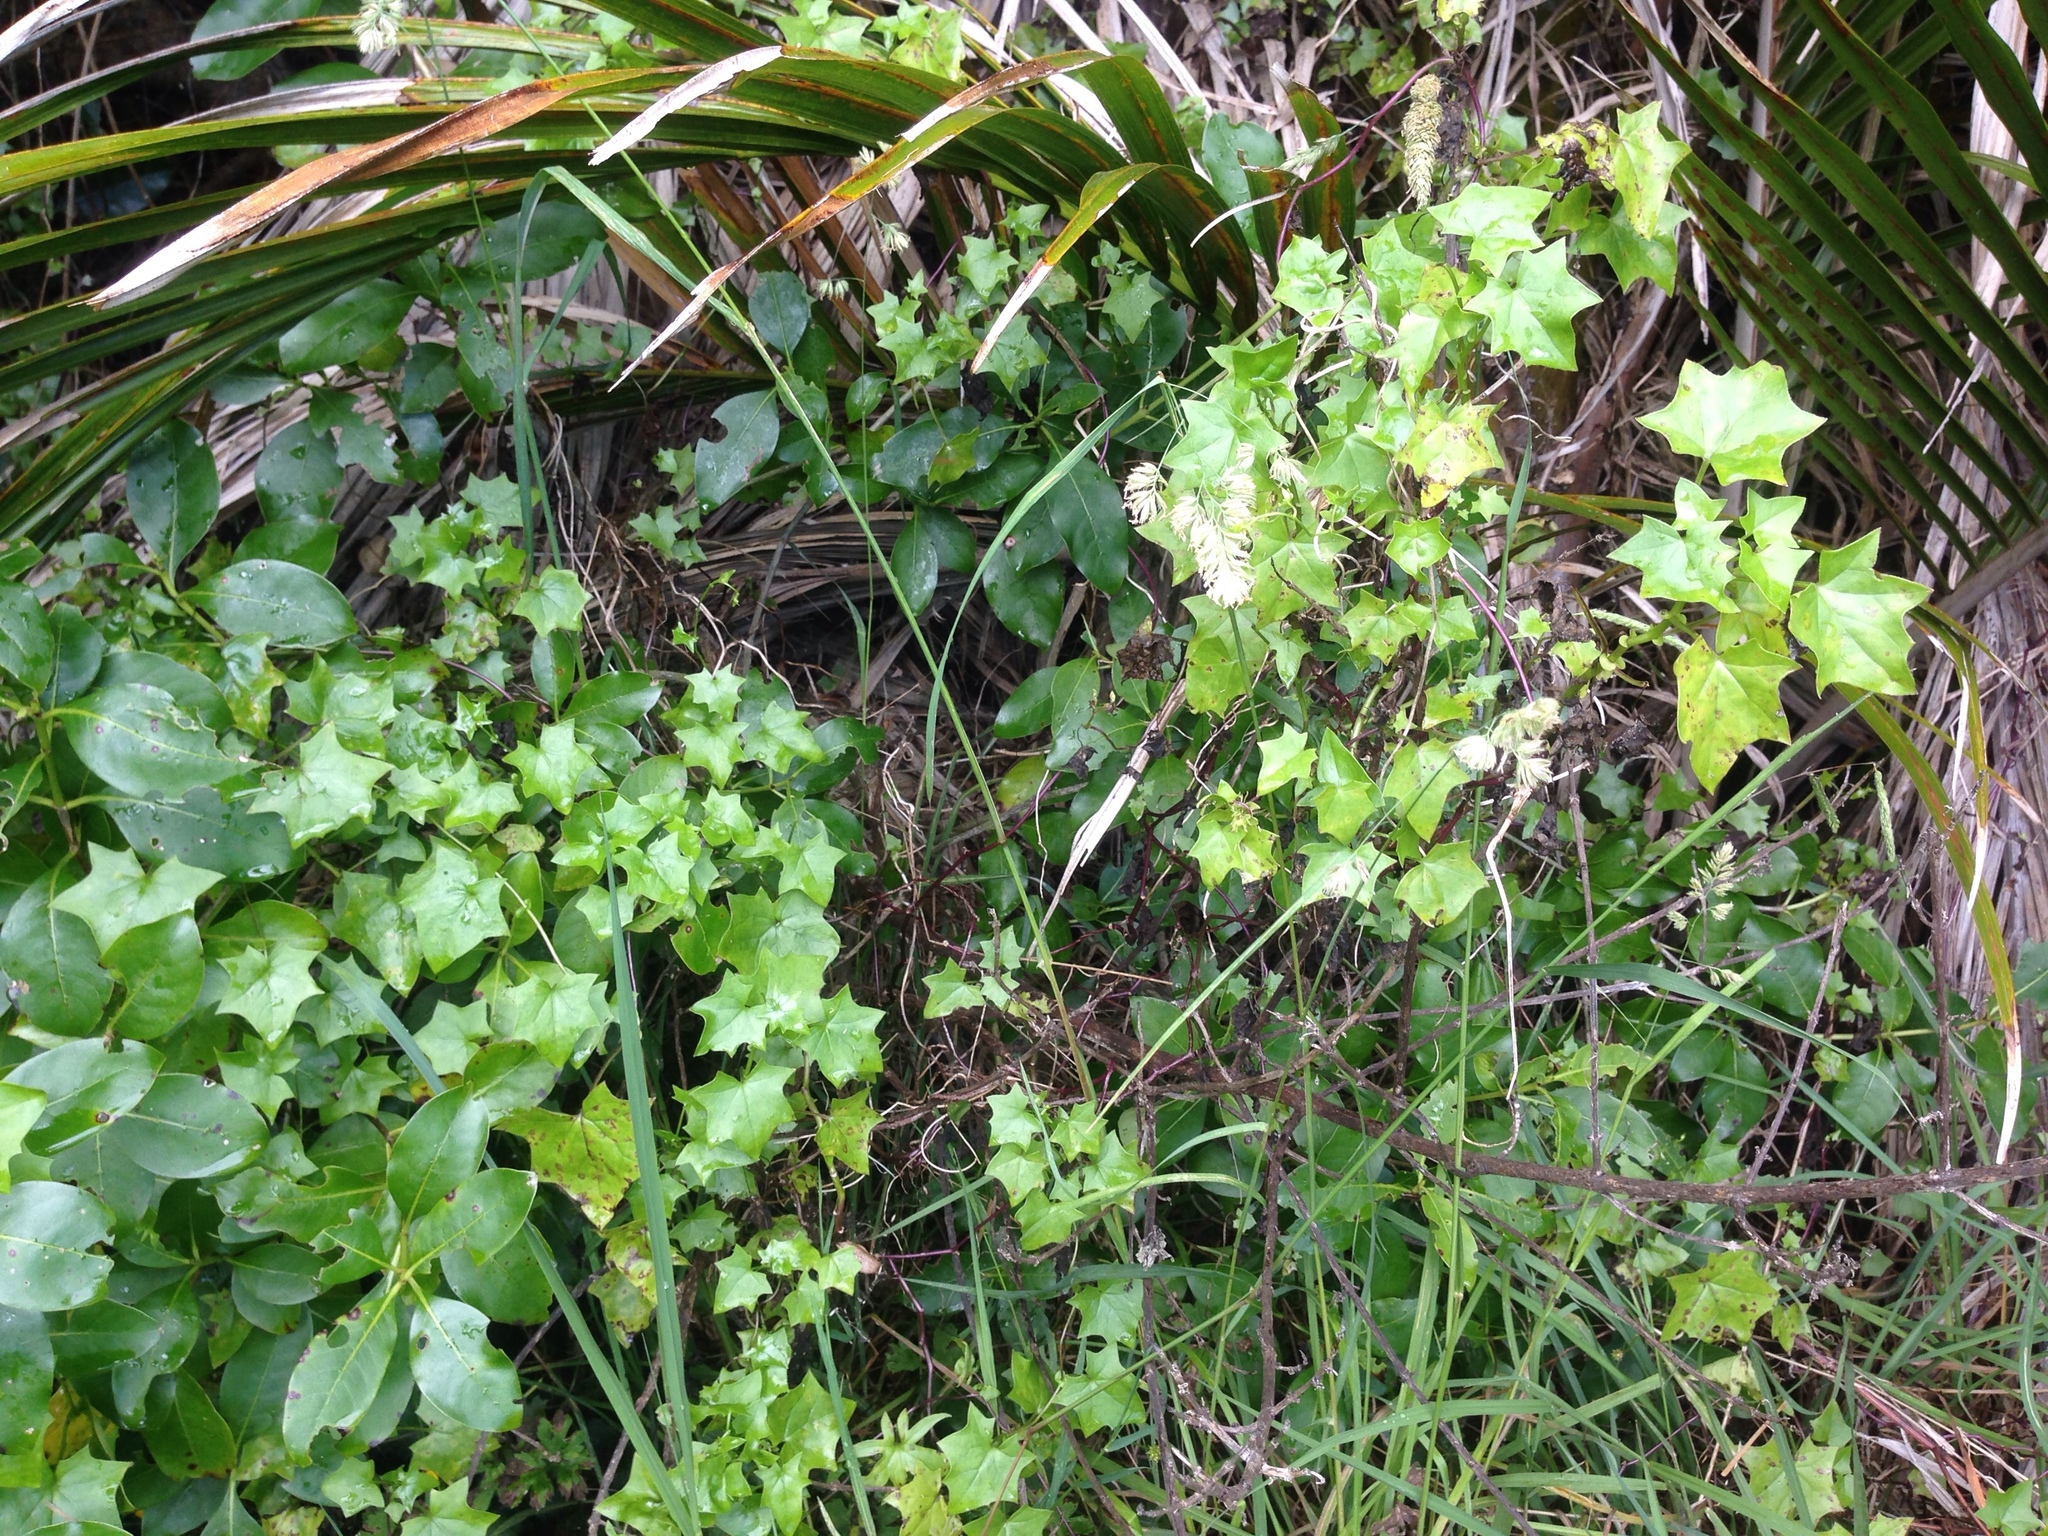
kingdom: Plantae
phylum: Tracheophyta
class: Magnoliopsida
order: Asterales
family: Asteraceae
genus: Delairea
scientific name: Delairea odorata
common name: Cape-ivy
